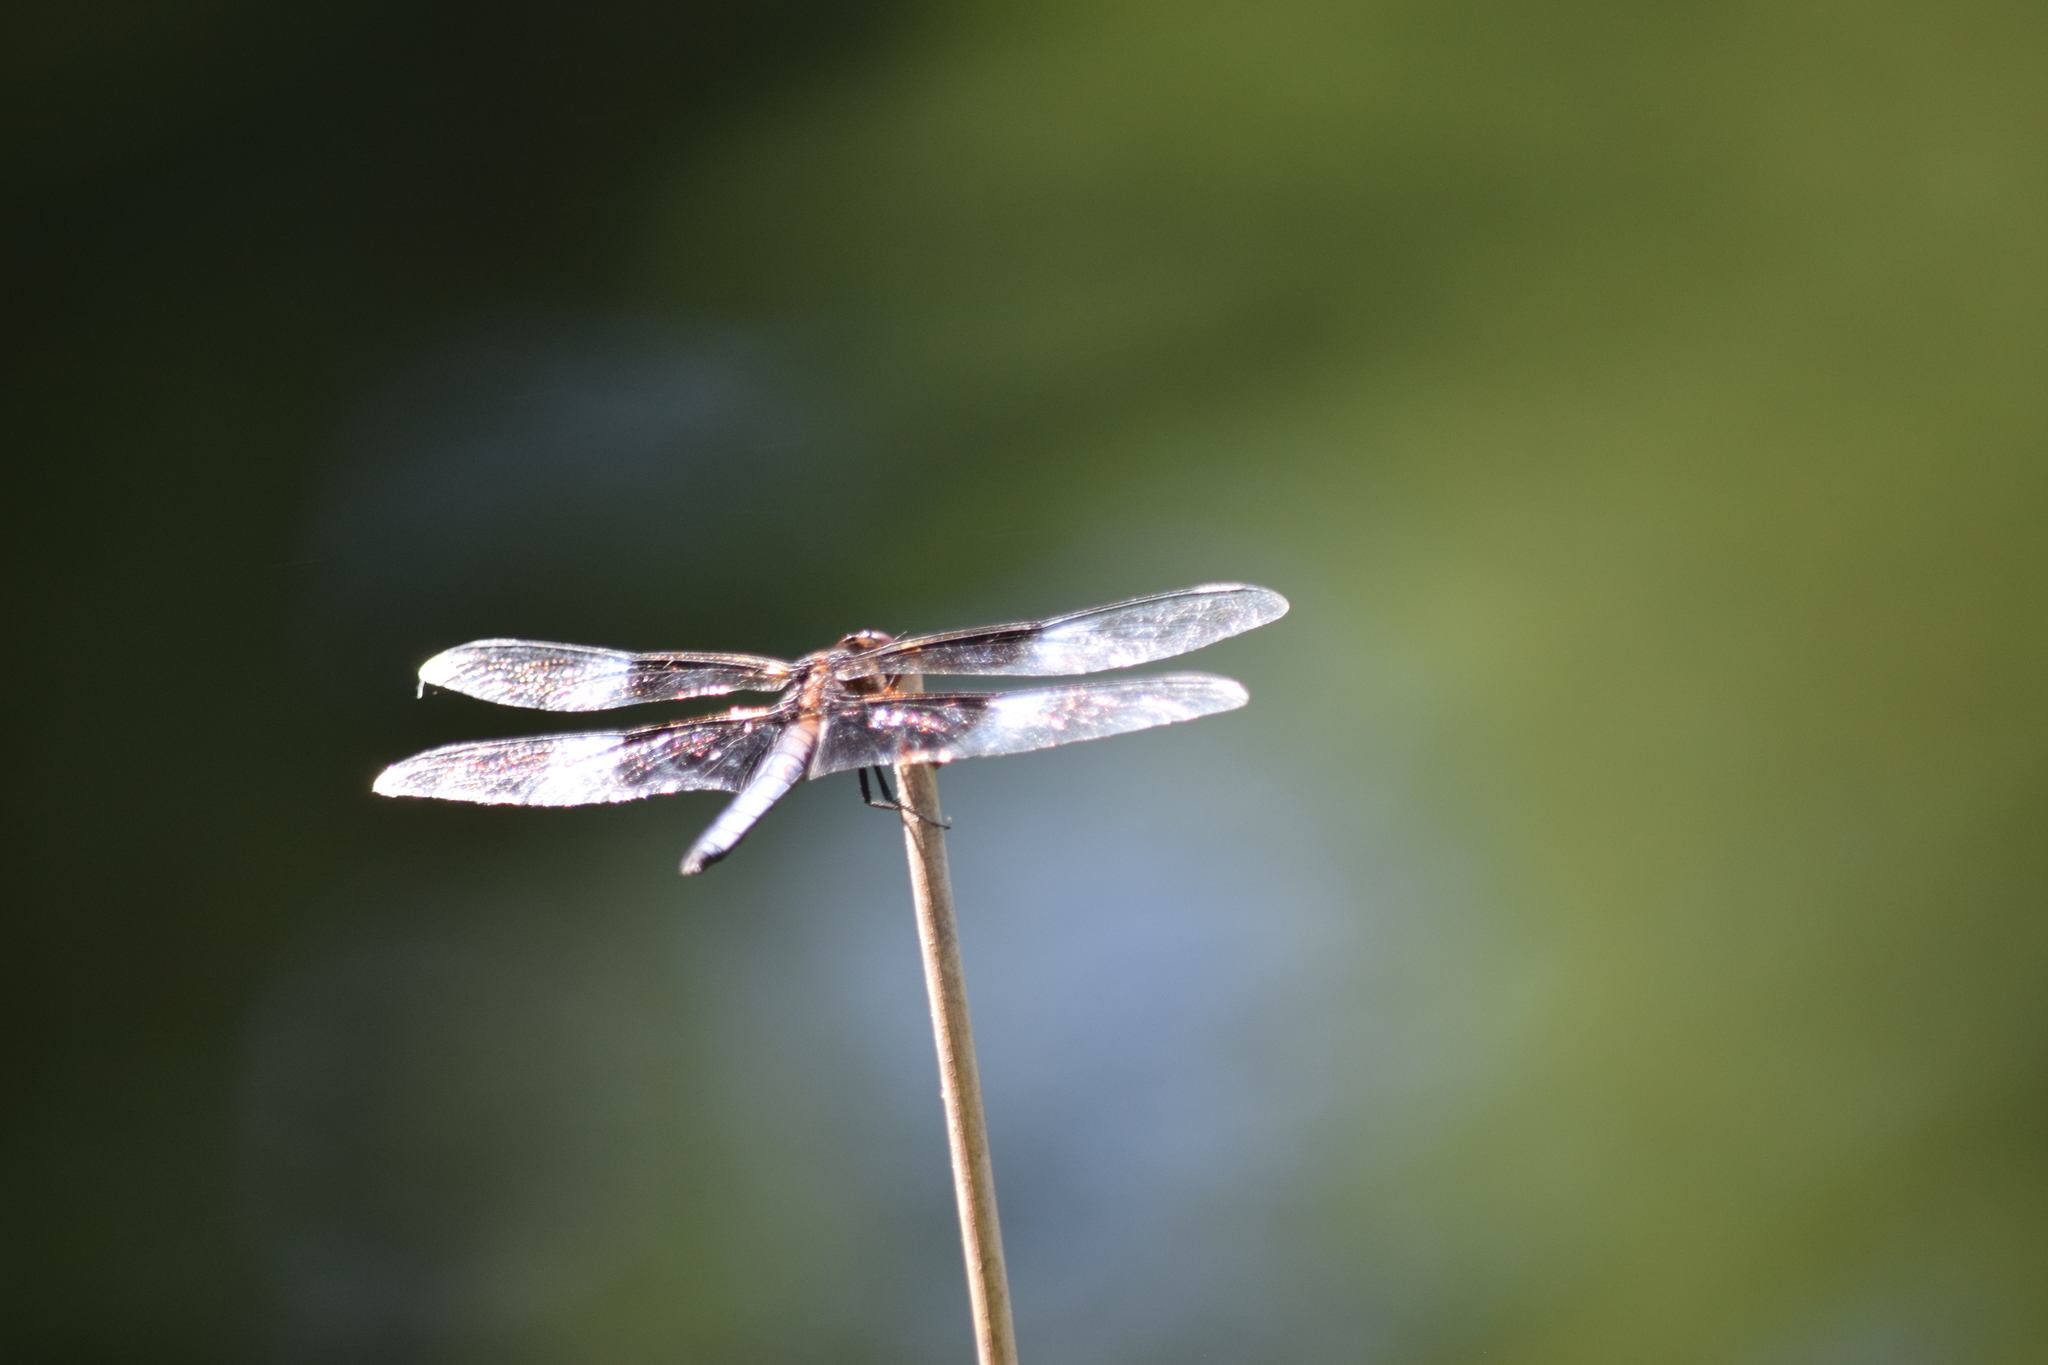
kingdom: Animalia
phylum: Arthropoda
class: Insecta
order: Odonata
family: Libellulidae
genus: Libellula
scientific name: Libellula luctuosa
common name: Widow skimmer
